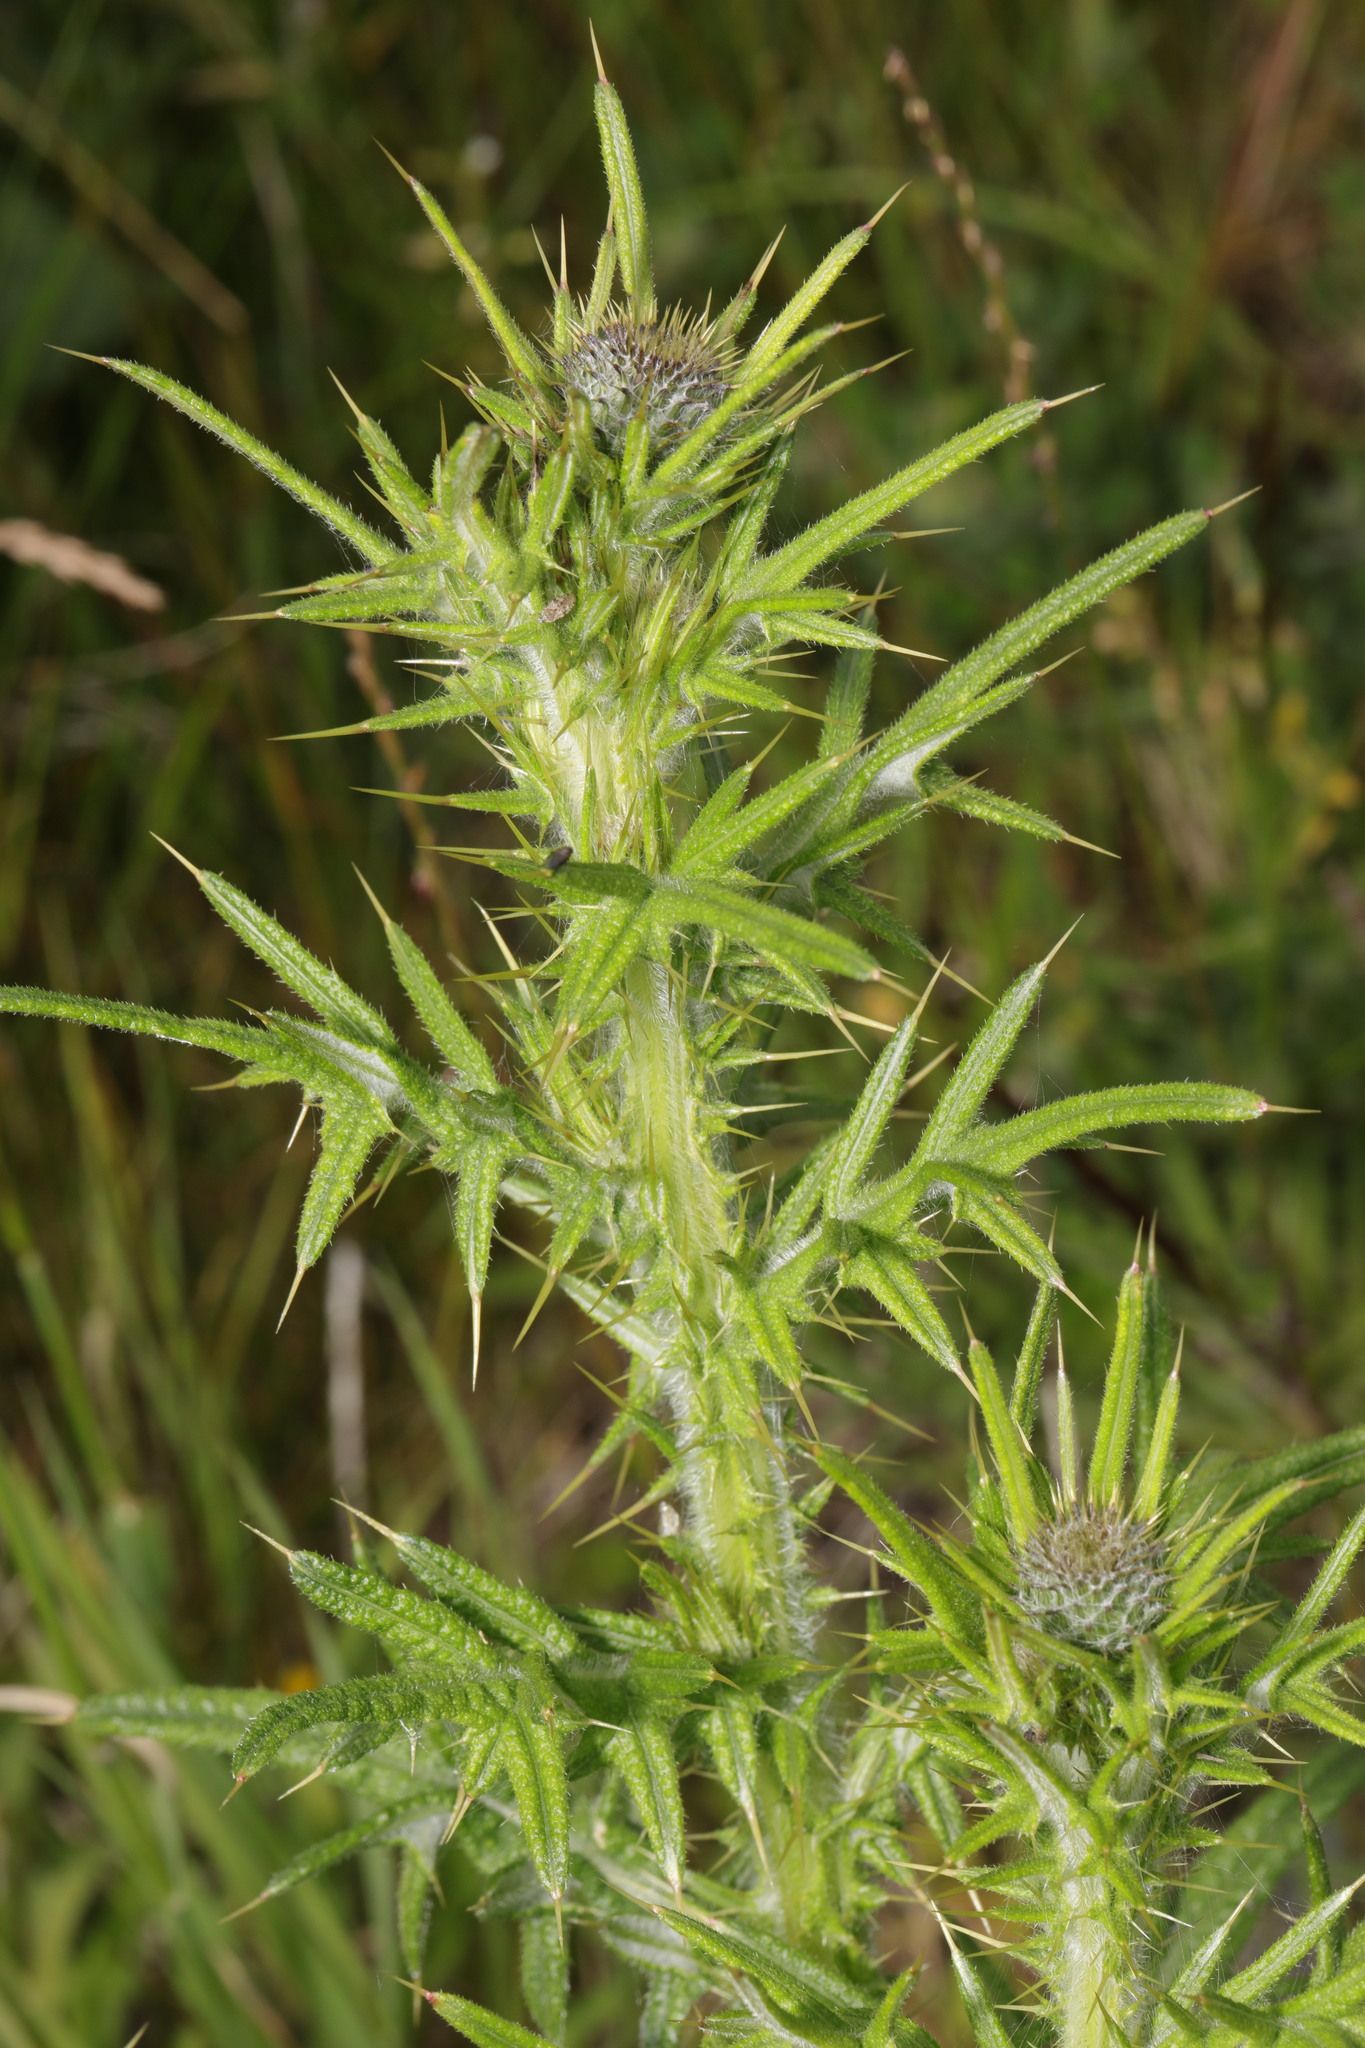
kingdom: Plantae
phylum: Tracheophyta
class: Magnoliopsida
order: Asterales
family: Asteraceae
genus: Cirsium
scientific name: Cirsium vulgare
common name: Bull thistle
